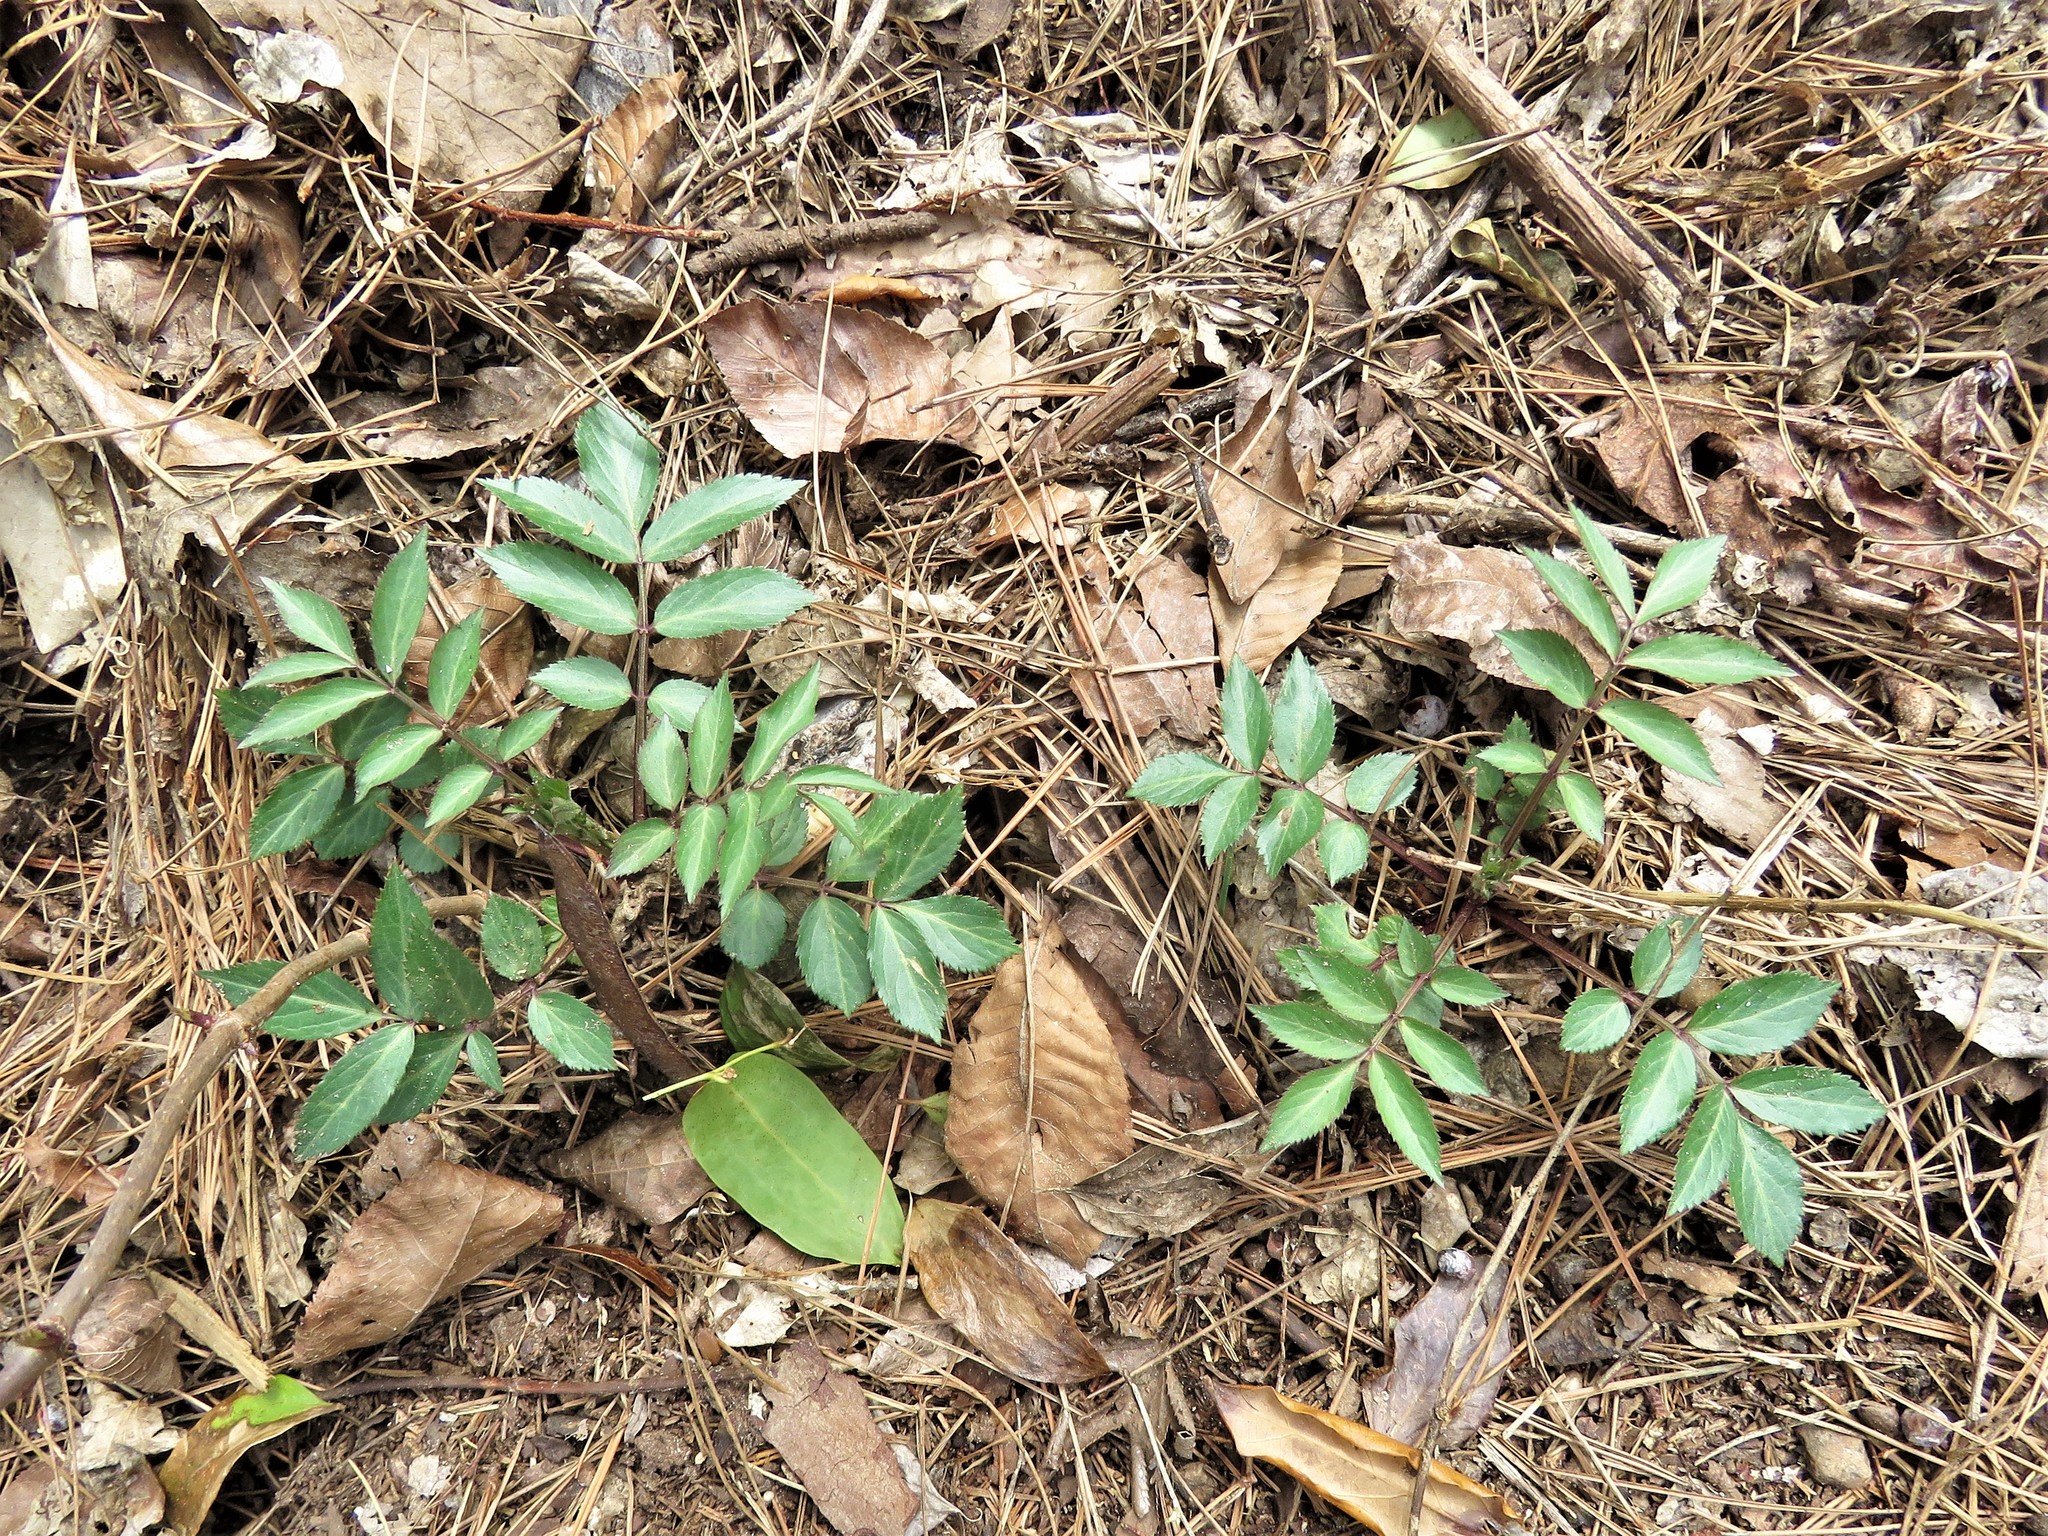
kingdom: Plantae
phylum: Tracheophyta
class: Magnoliopsida
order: Dipsacales
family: Viburnaceae
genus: Sambucus
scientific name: Sambucus canadensis
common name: American elder
